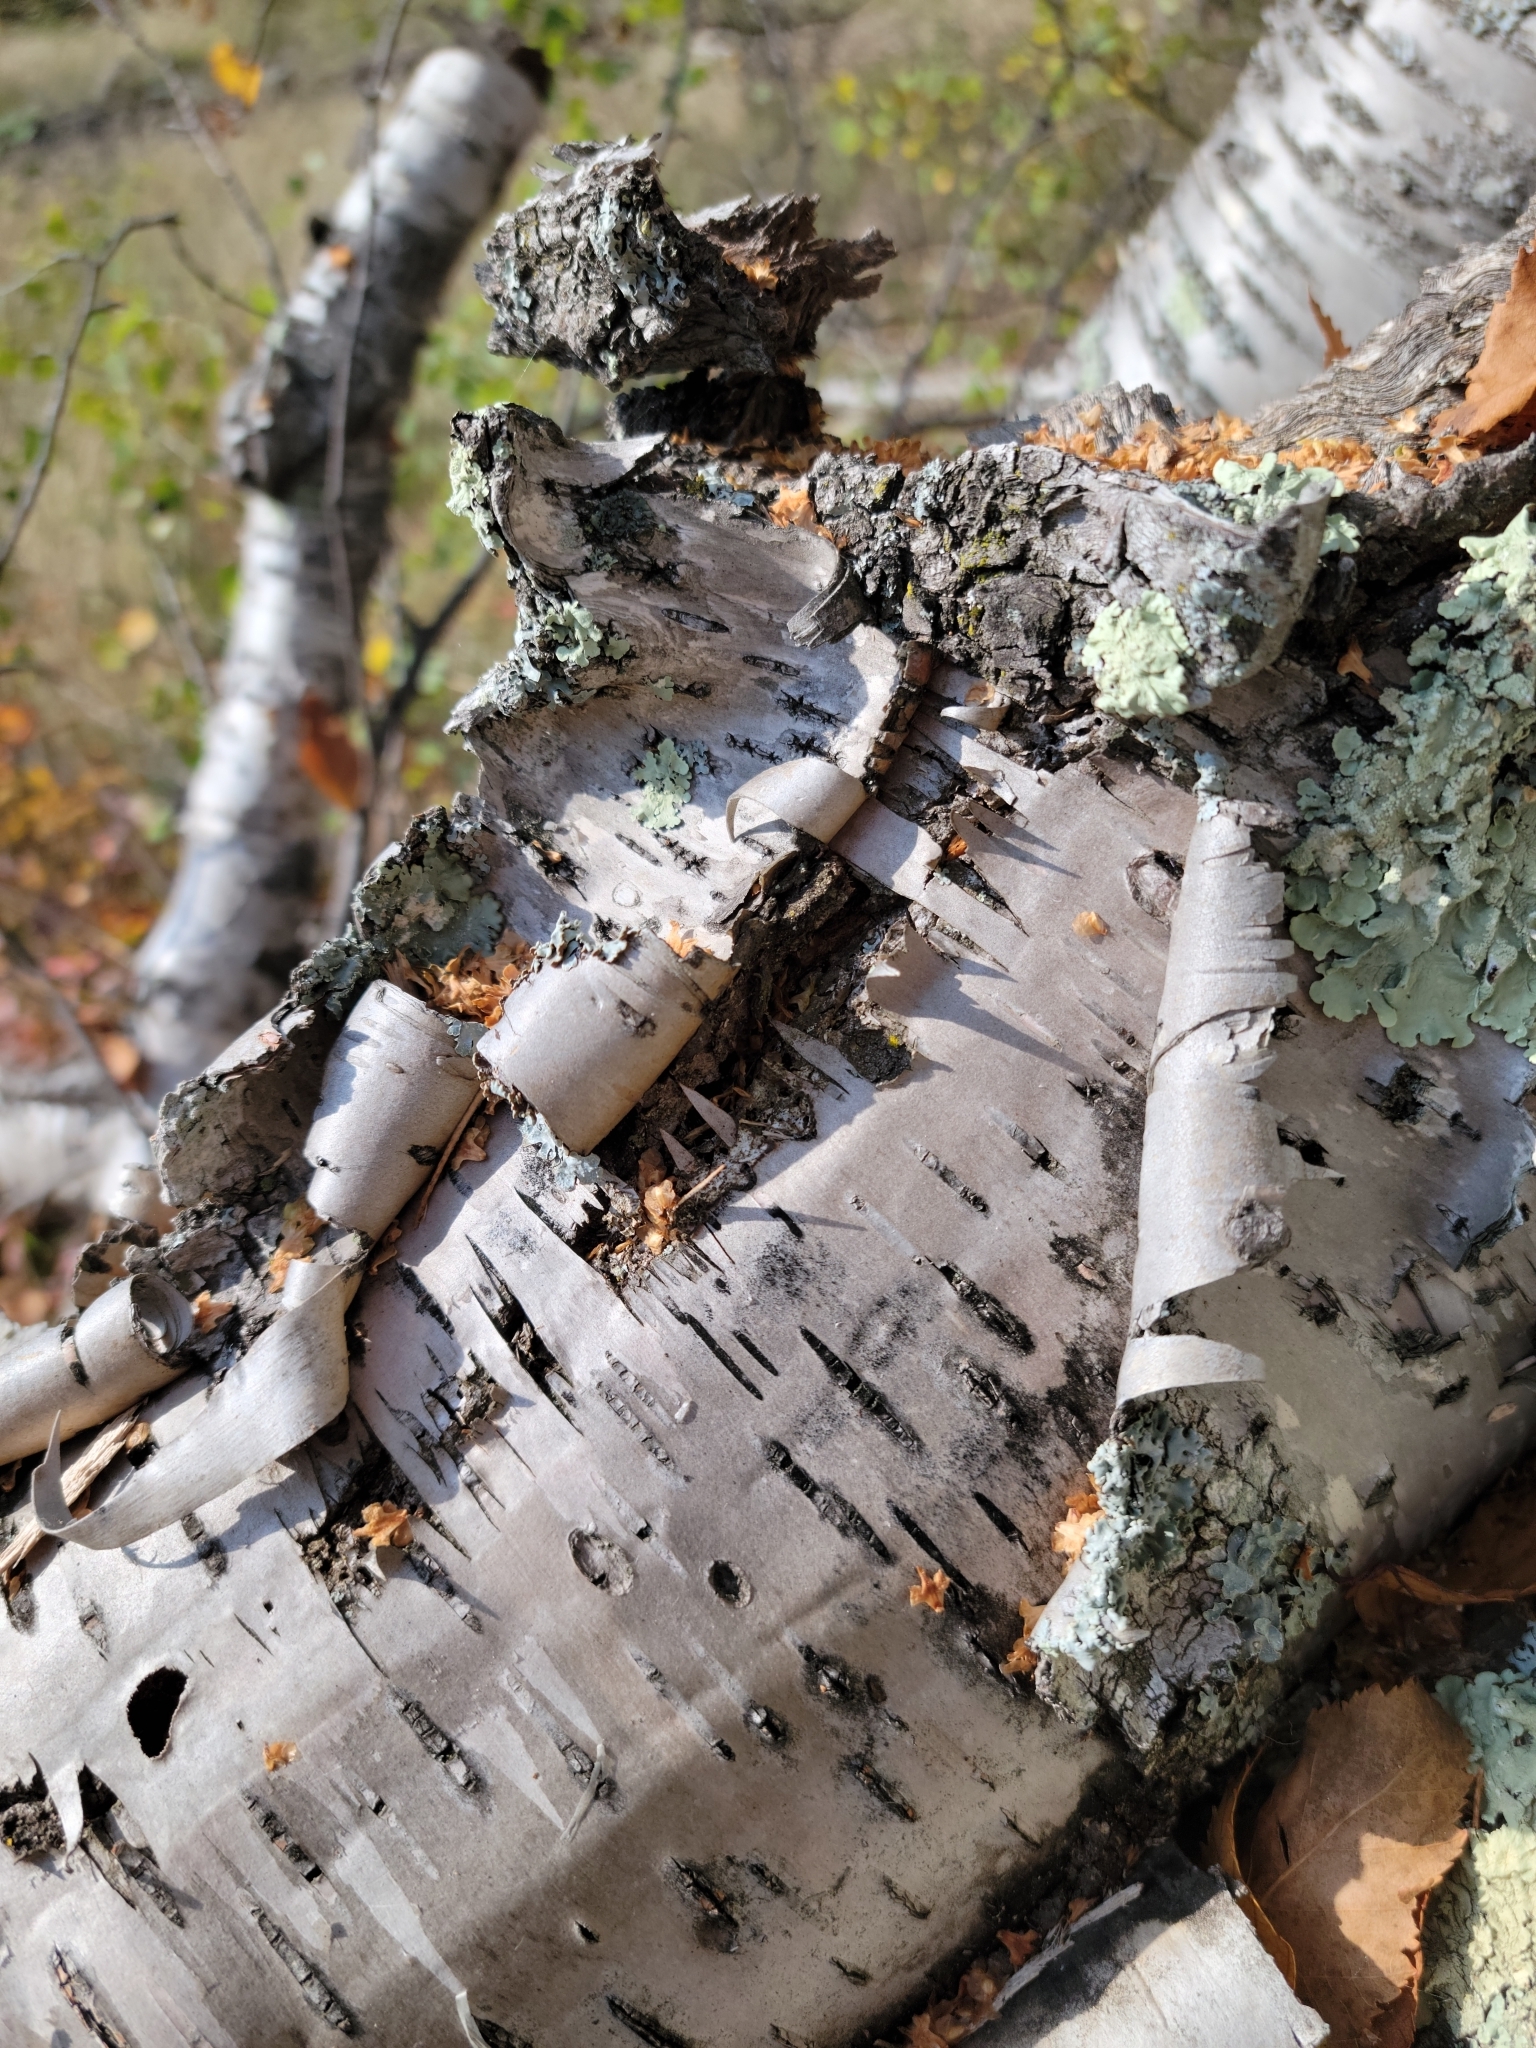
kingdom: Plantae
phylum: Tracheophyta
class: Magnoliopsida
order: Fagales
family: Betulaceae
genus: Betula
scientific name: Betula papyrifera
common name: Paper birch
